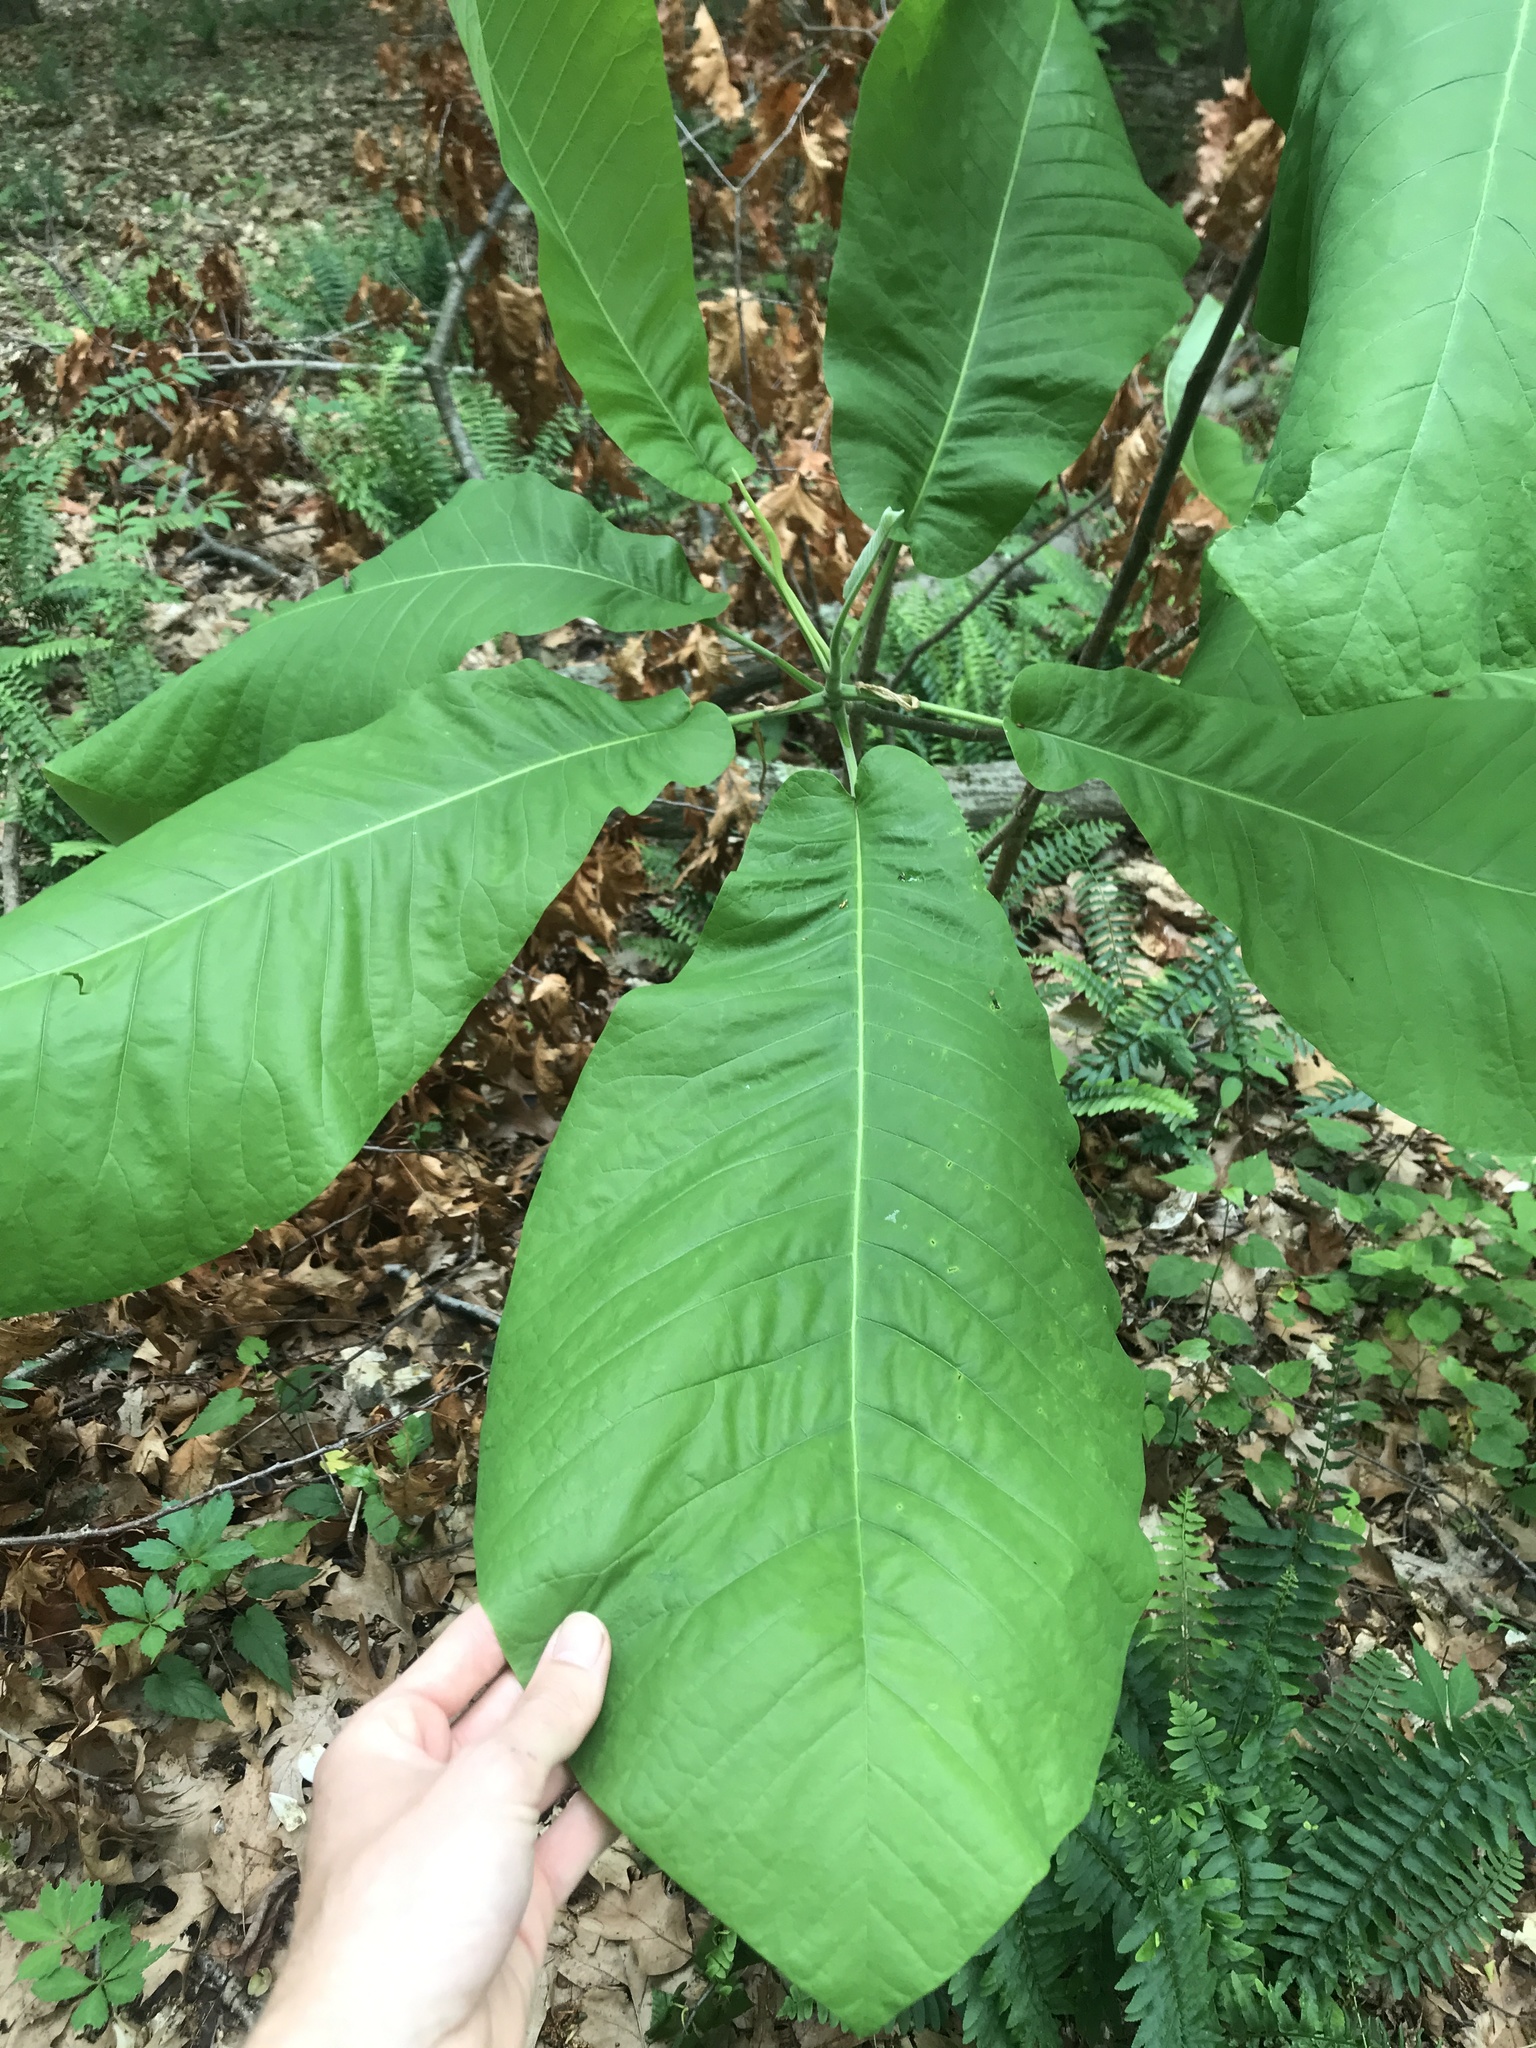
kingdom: Plantae
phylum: Tracheophyta
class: Magnoliopsida
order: Magnoliales
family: Magnoliaceae
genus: Magnolia
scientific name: Magnolia macrophylla
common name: Big-leaf magnolia
